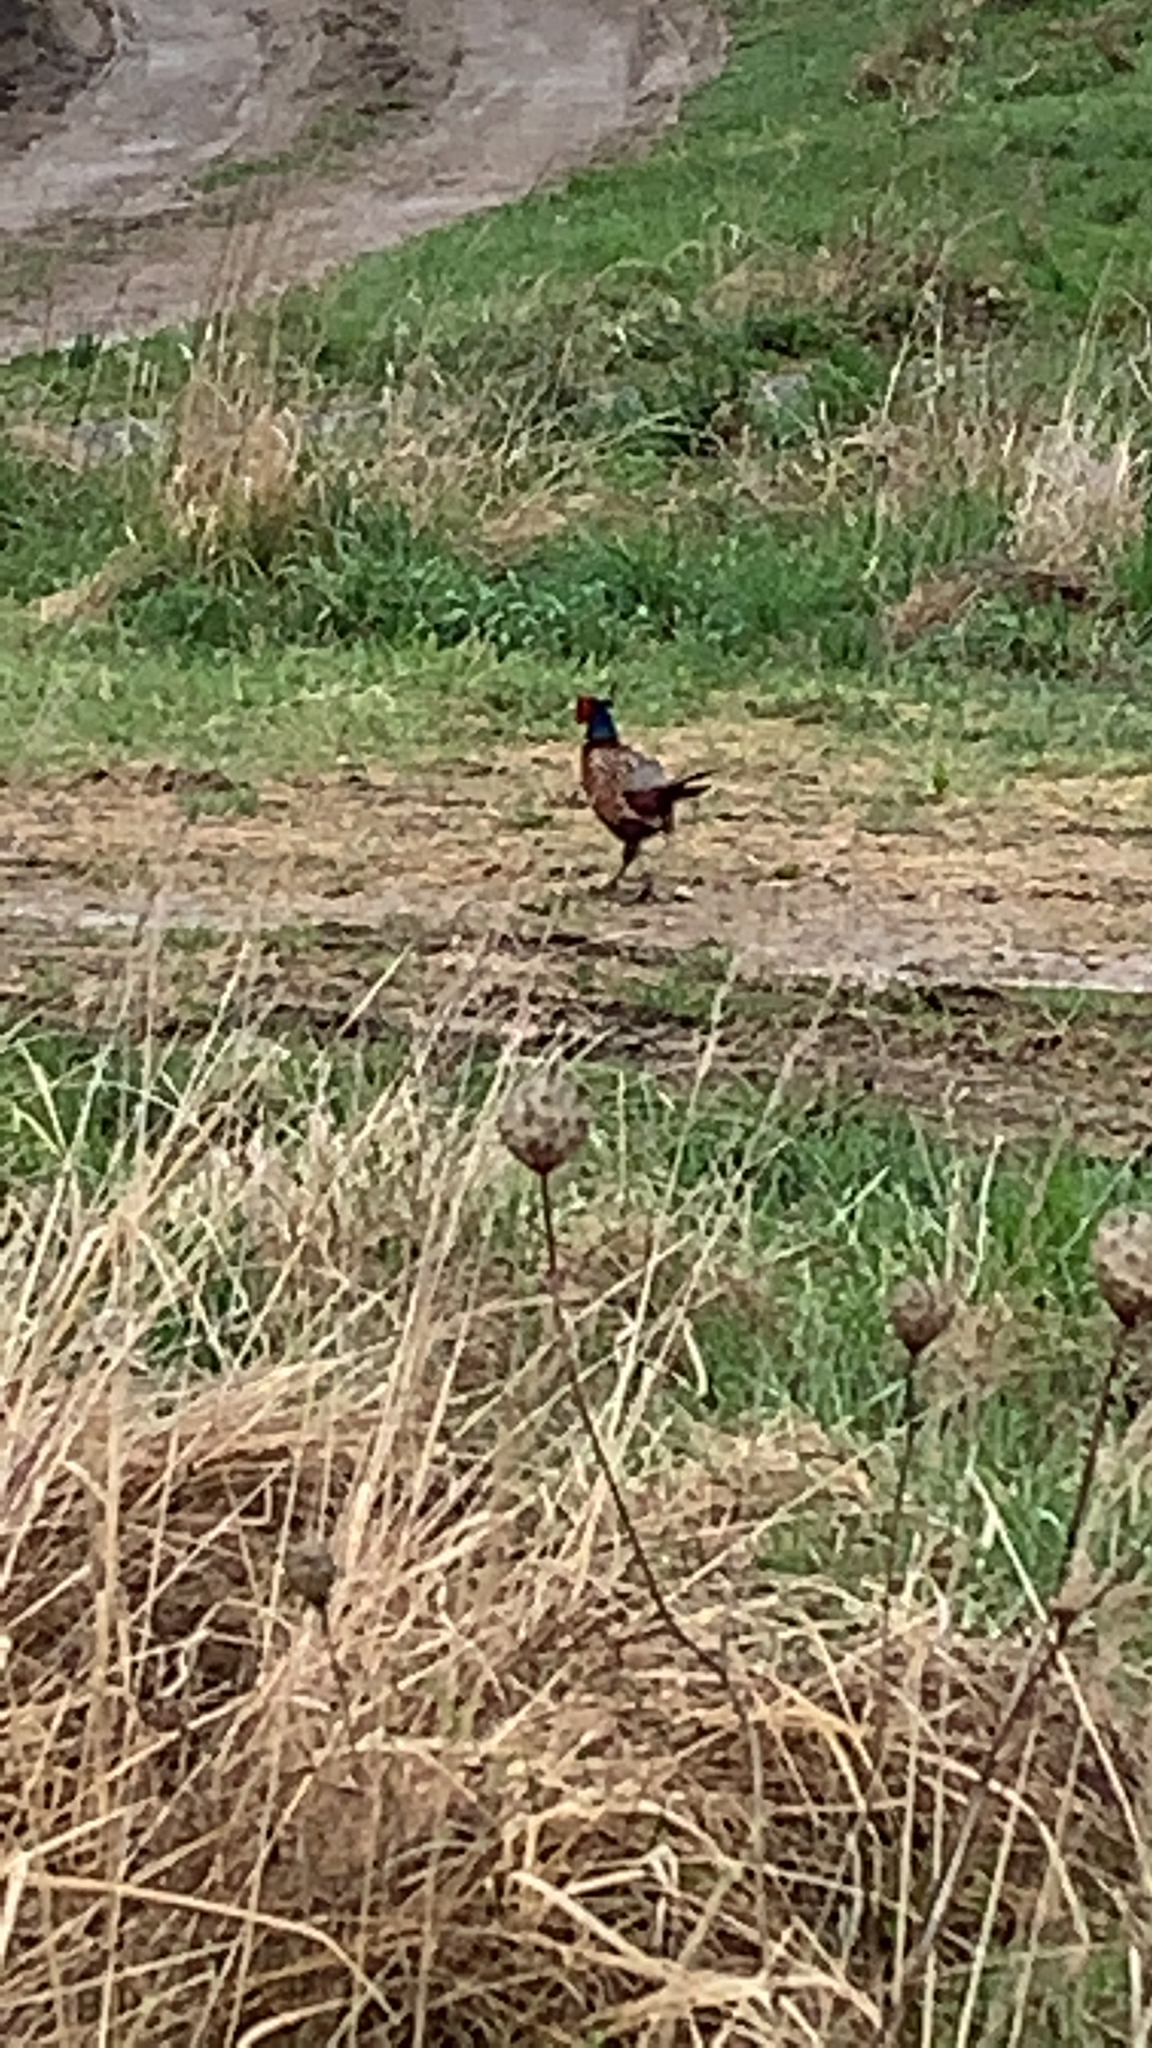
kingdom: Animalia
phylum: Chordata
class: Aves
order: Galliformes
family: Phasianidae
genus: Phasianus
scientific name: Phasianus colchicus
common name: Common pheasant
